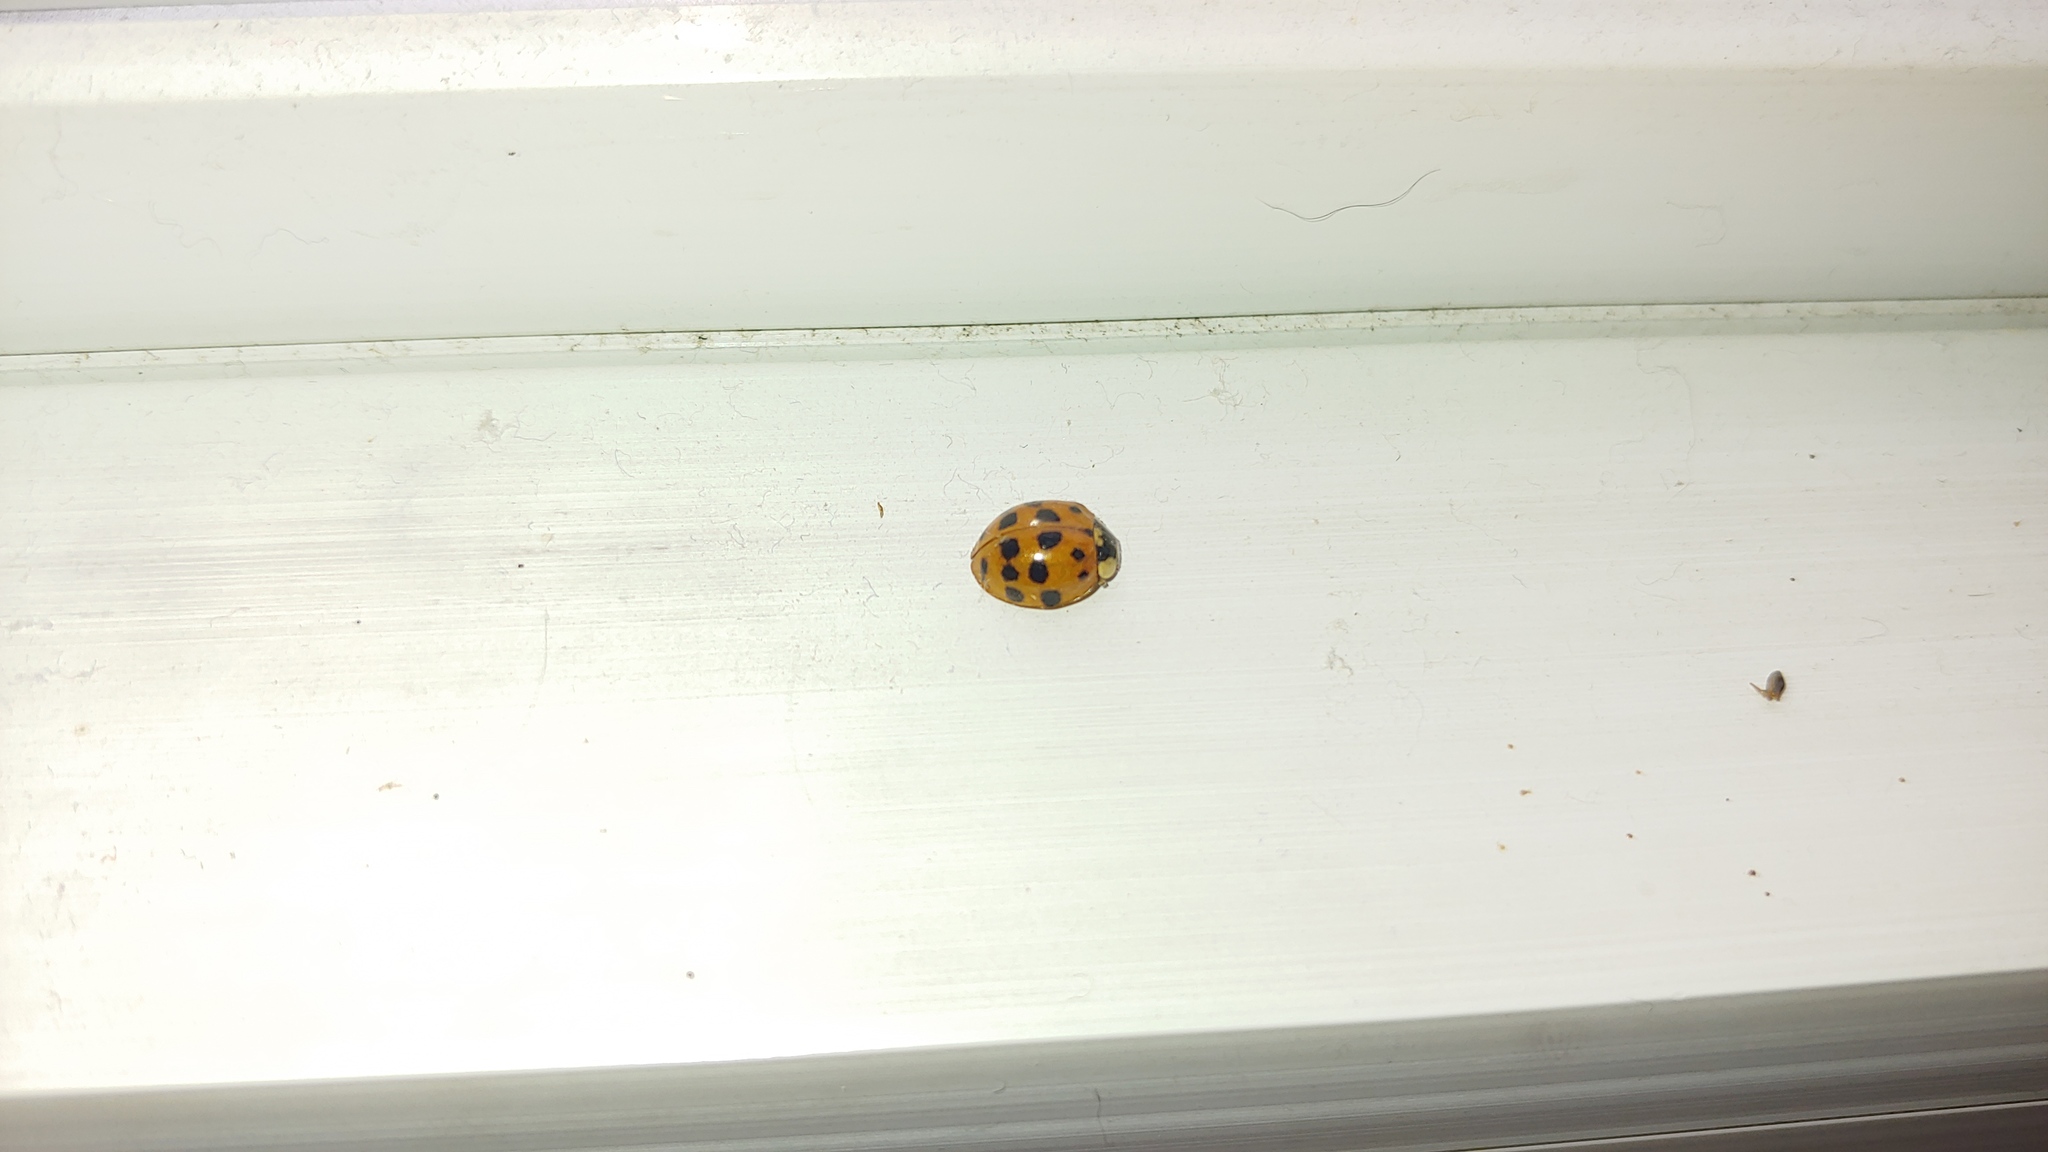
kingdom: Animalia
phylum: Arthropoda
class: Insecta
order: Coleoptera
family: Coccinellidae
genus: Harmonia
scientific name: Harmonia axyridis
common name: Harlequin ladybird
